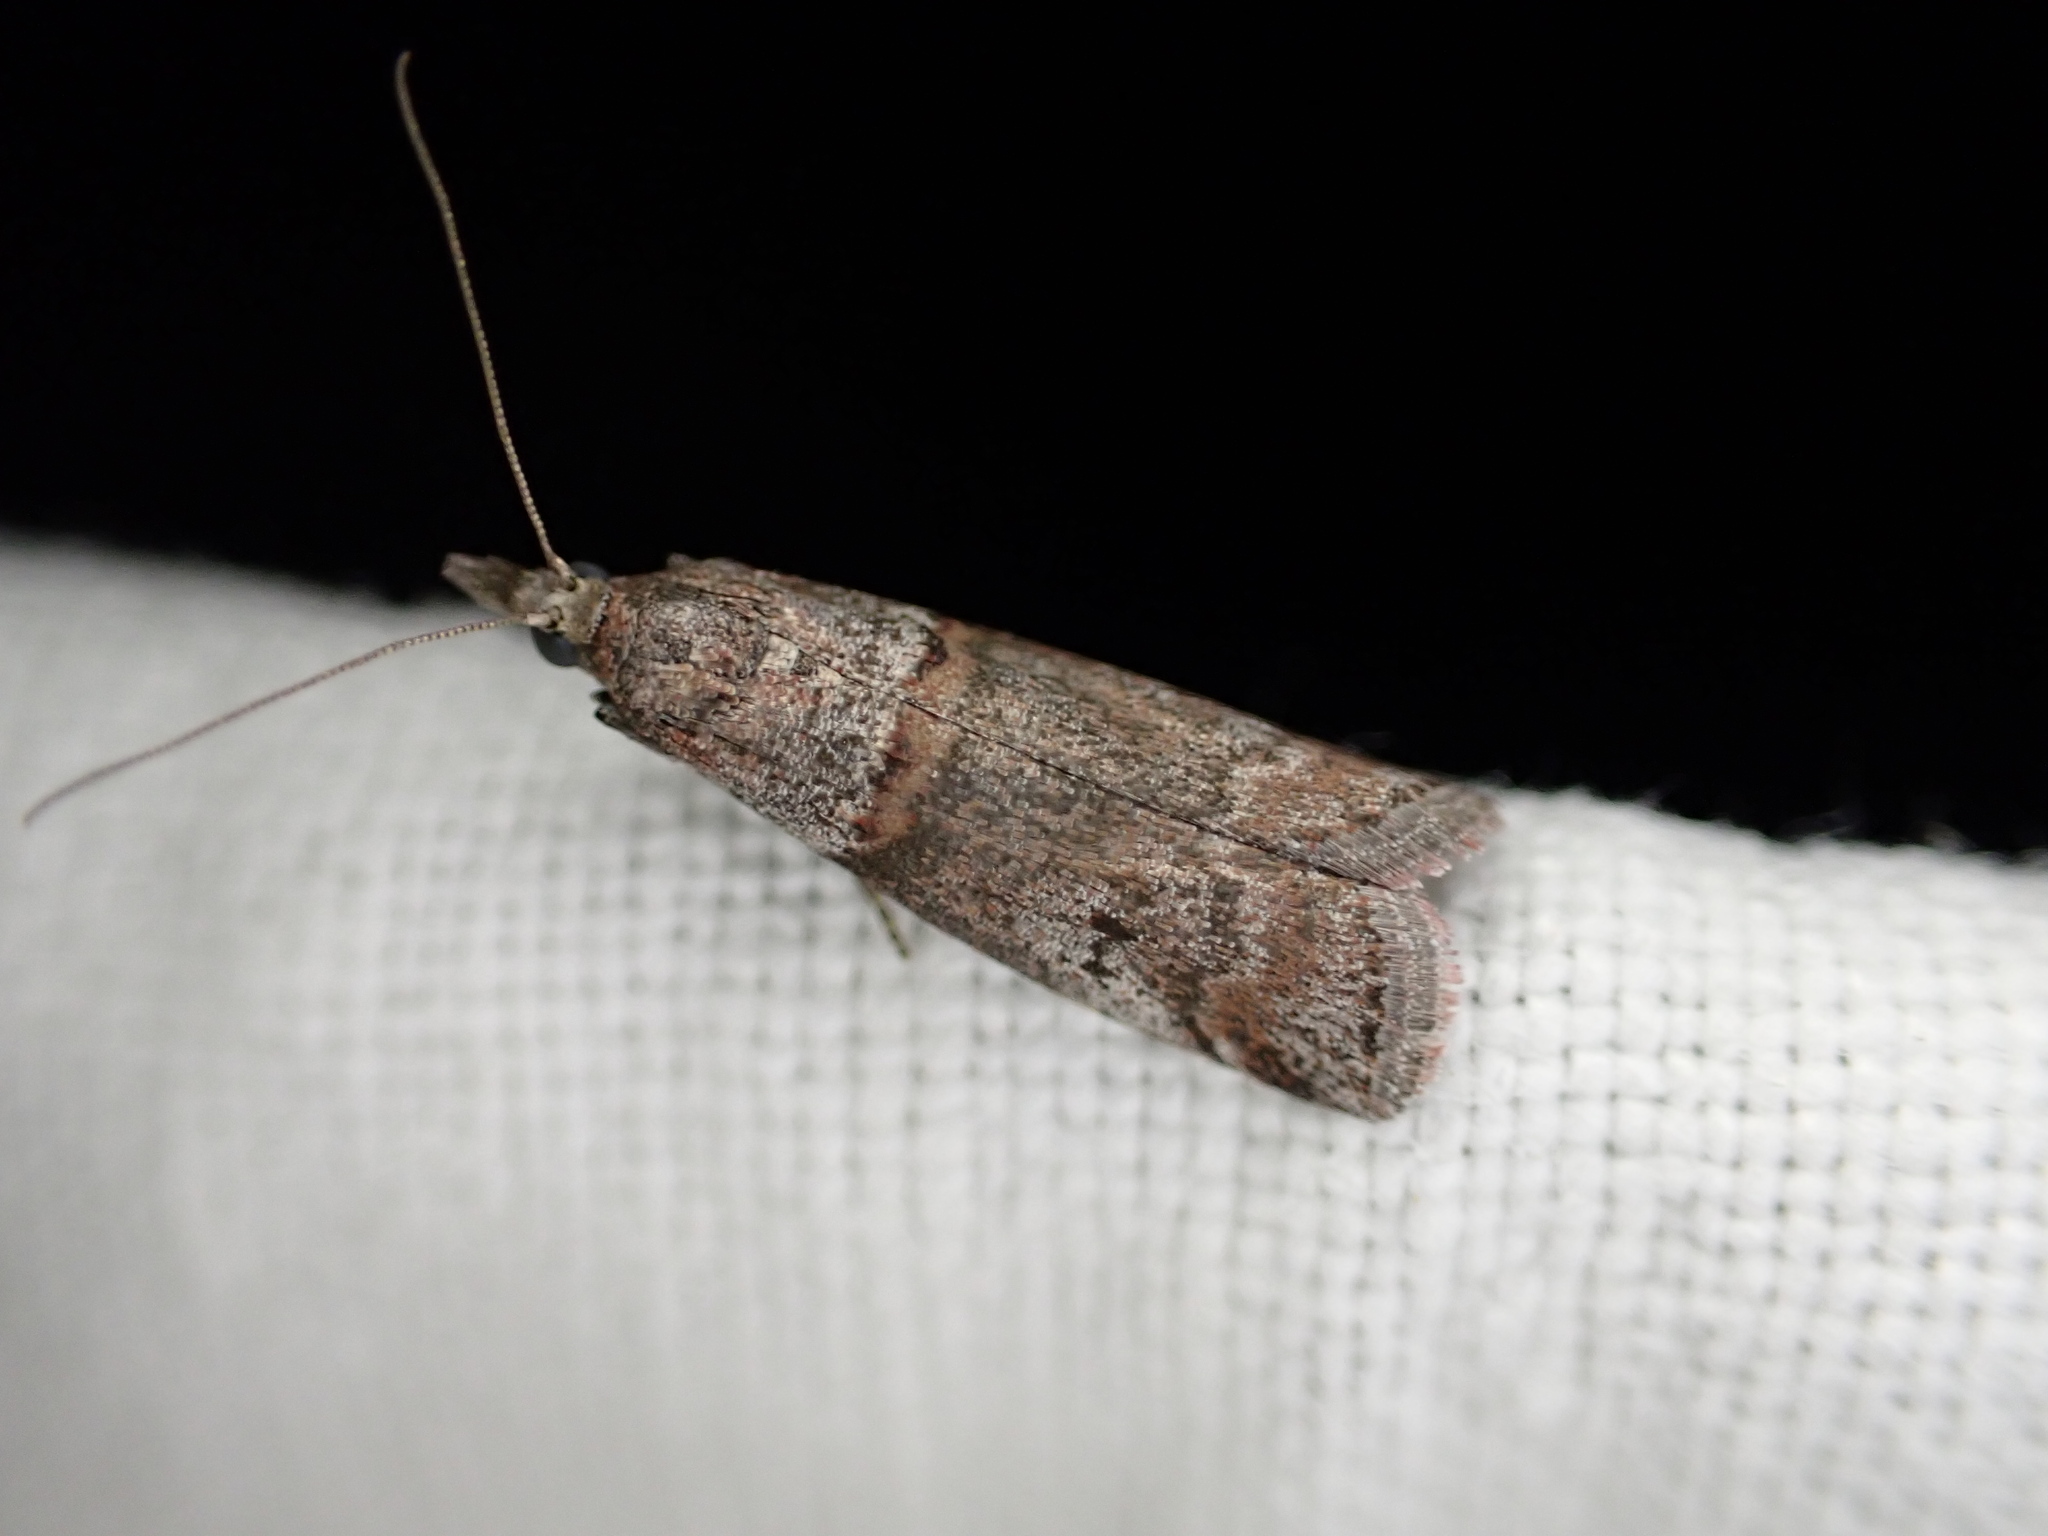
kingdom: Animalia
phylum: Arthropoda
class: Insecta
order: Lepidoptera
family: Pyralidae
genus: Acrobasis
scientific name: Acrobasis obliqua
